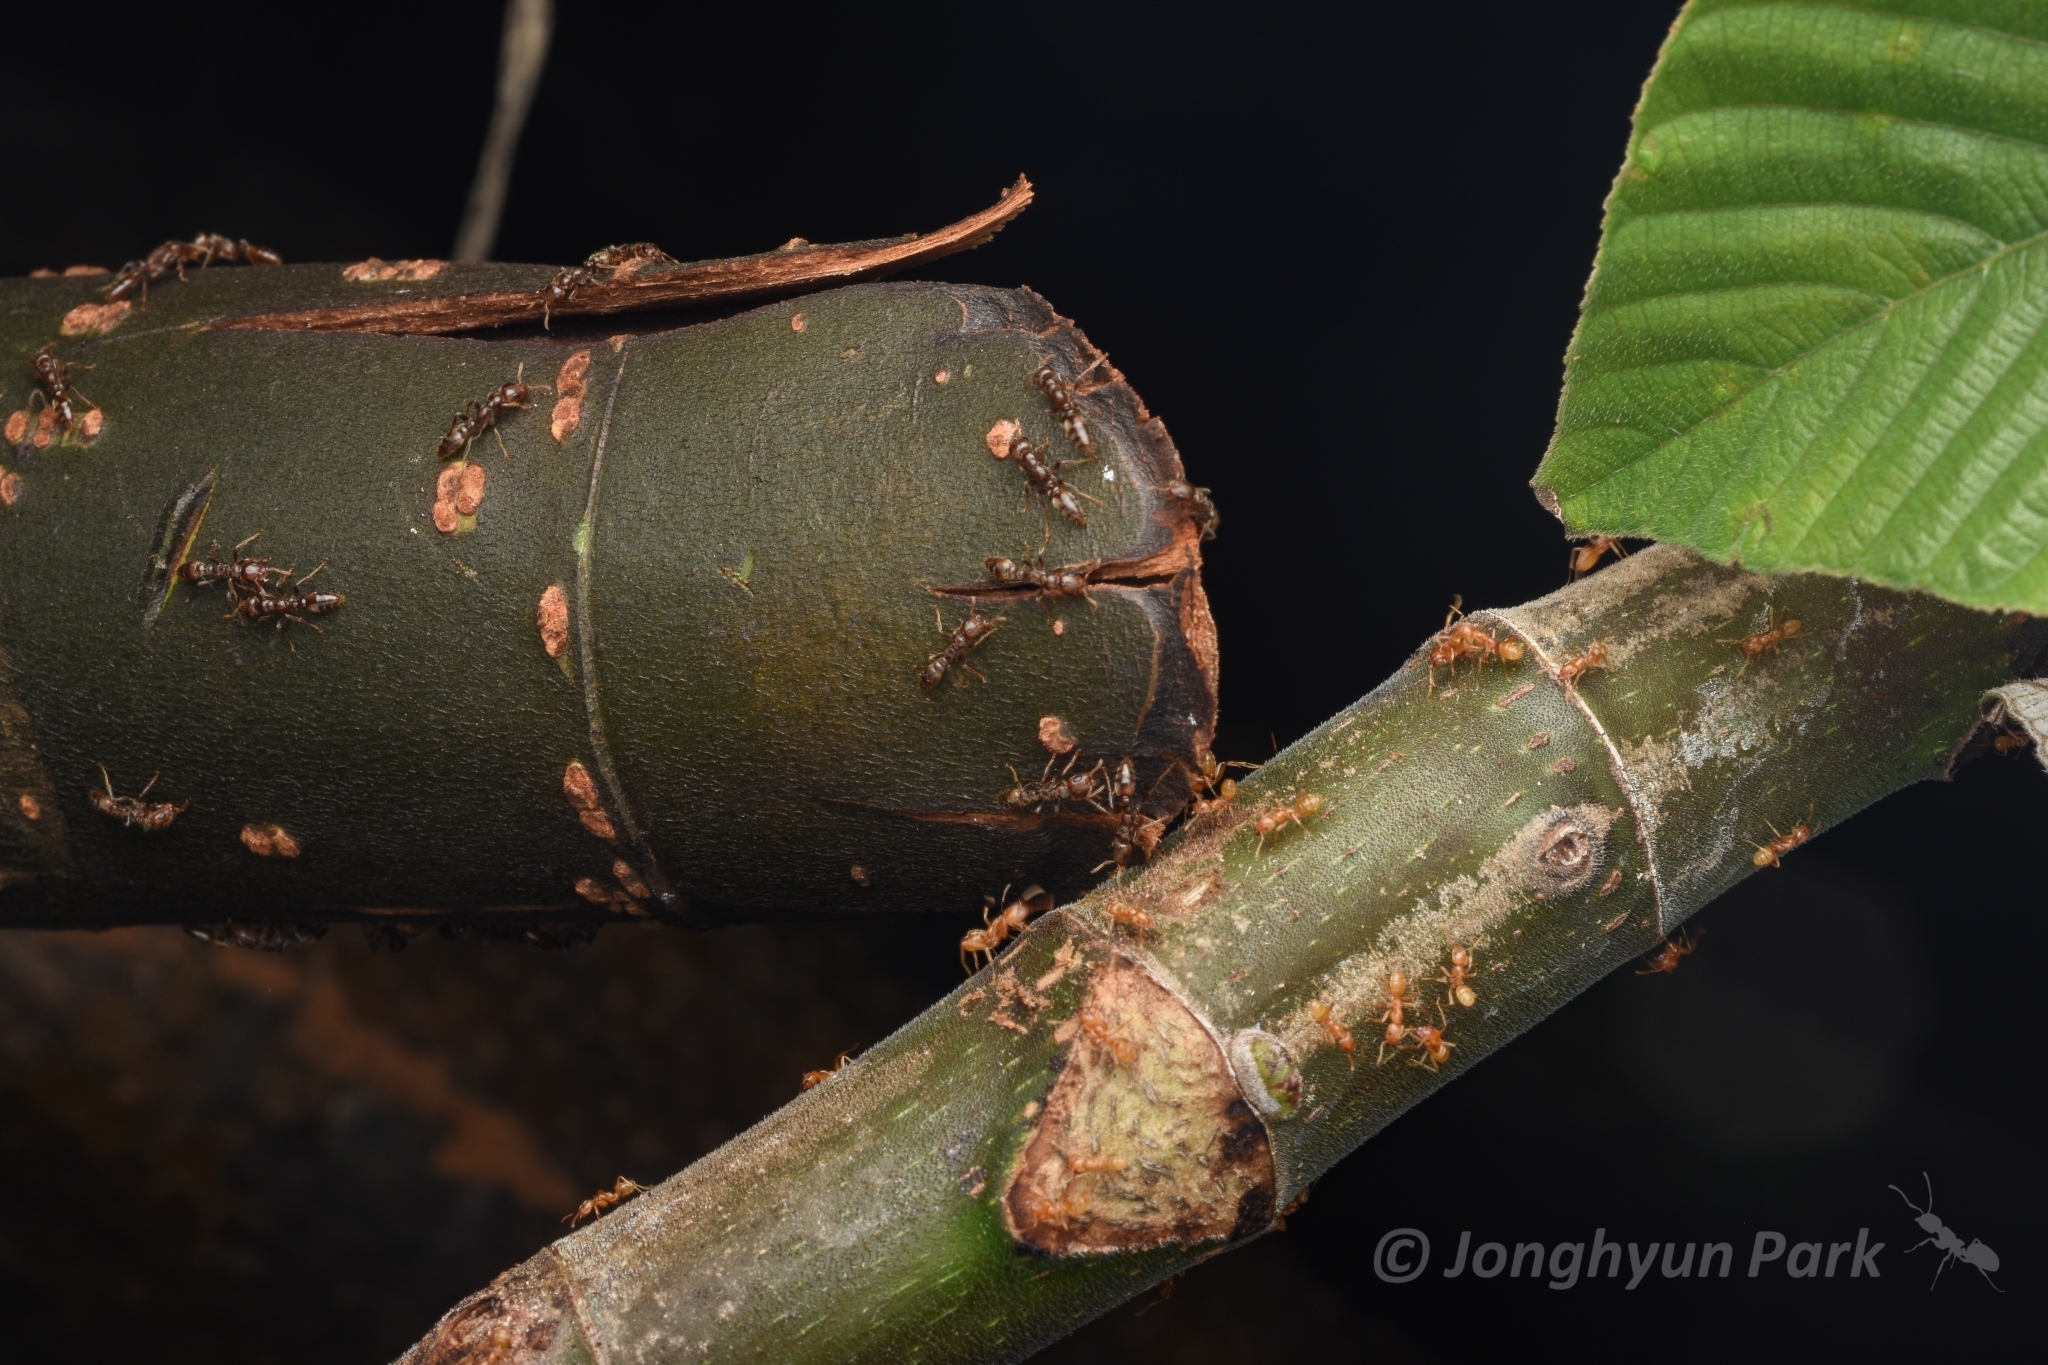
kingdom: Animalia
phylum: Arthropoda
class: Insecta
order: Hymenoptera
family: Formicidae
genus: Azteca
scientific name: Azteca alfari
